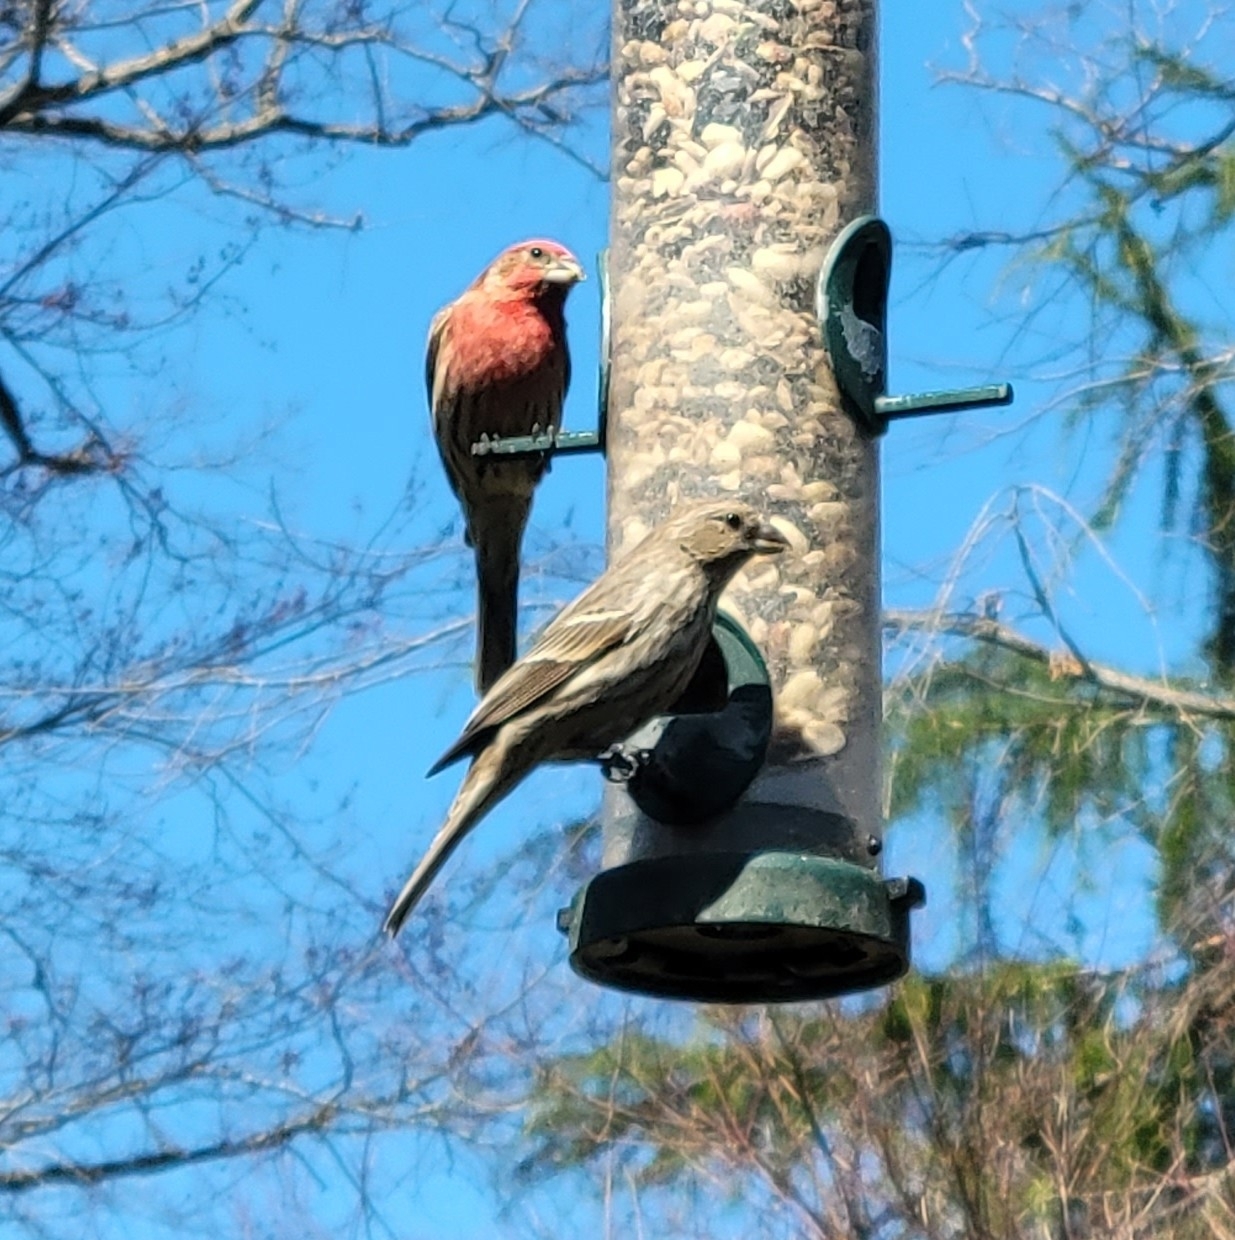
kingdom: Animalia
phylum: Chordata
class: Aves
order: Passeriformes
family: Fringillidae
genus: Haemorhous
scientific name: Haemorhous mexicanus
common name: House finch
